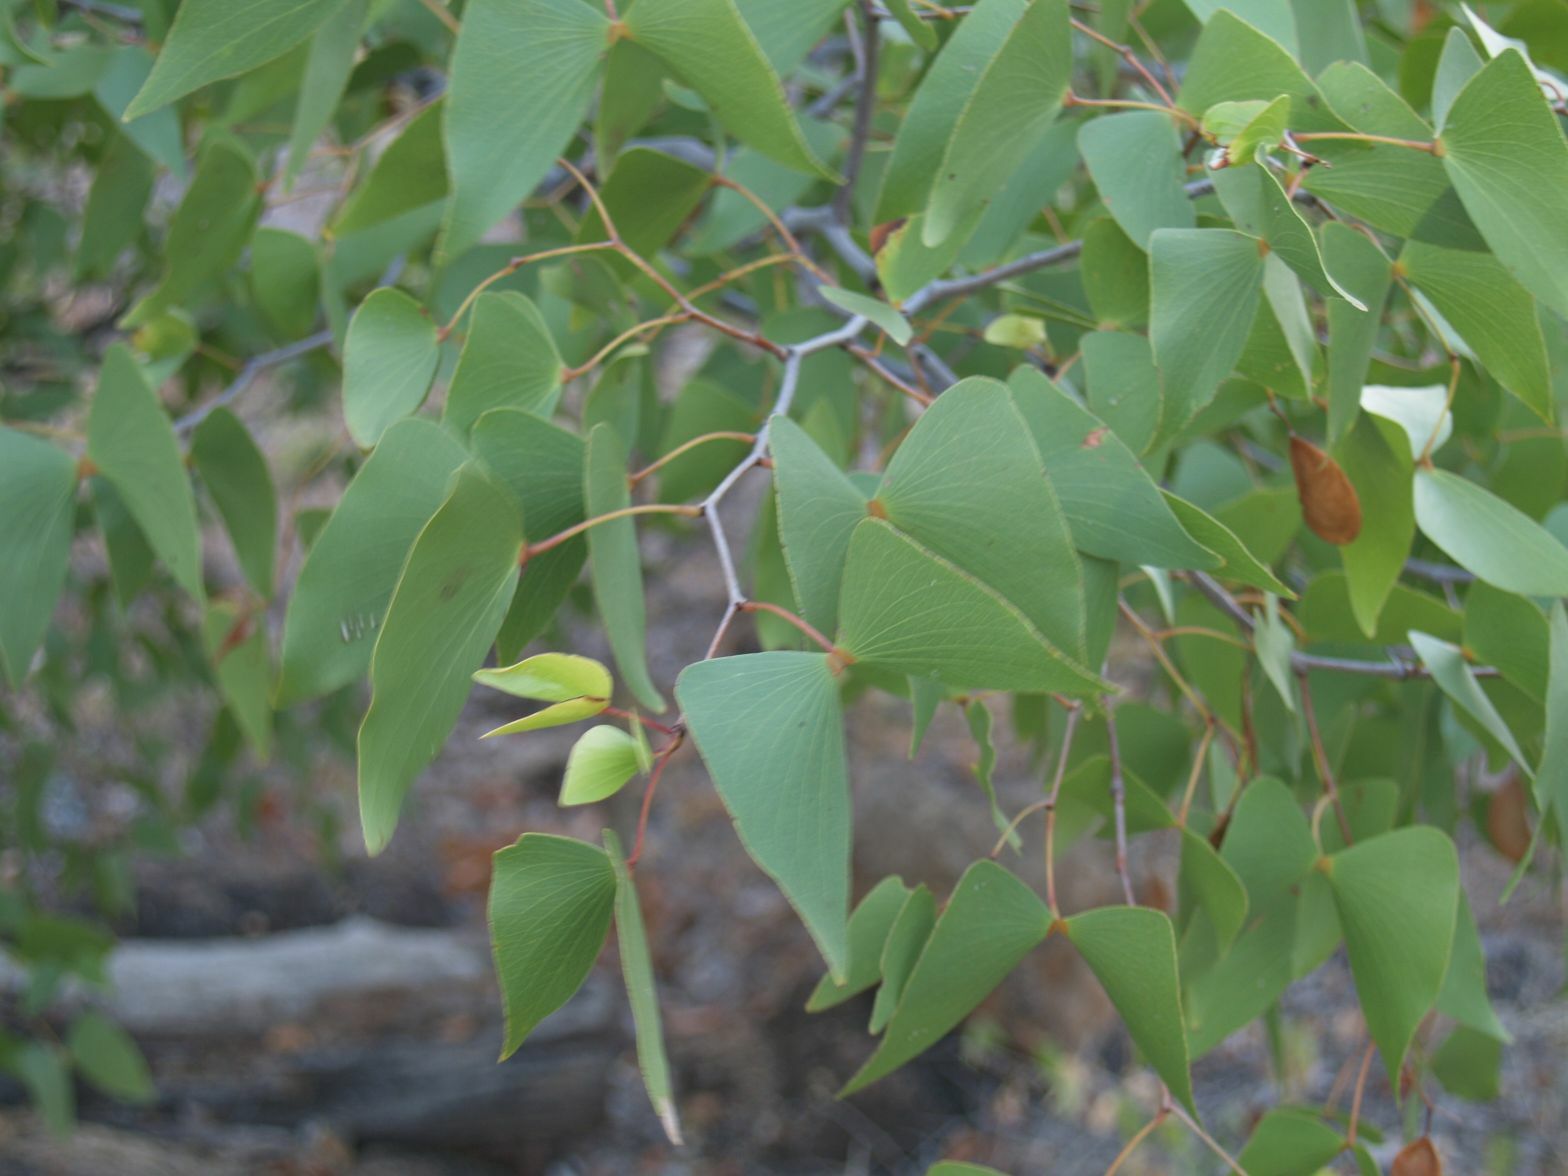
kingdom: Plantae
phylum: Tracheophyta
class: Magnoliopsida
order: Fabales
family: Fabaceae
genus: Colophospermum
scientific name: Colophospermum mopane
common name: Mopane
